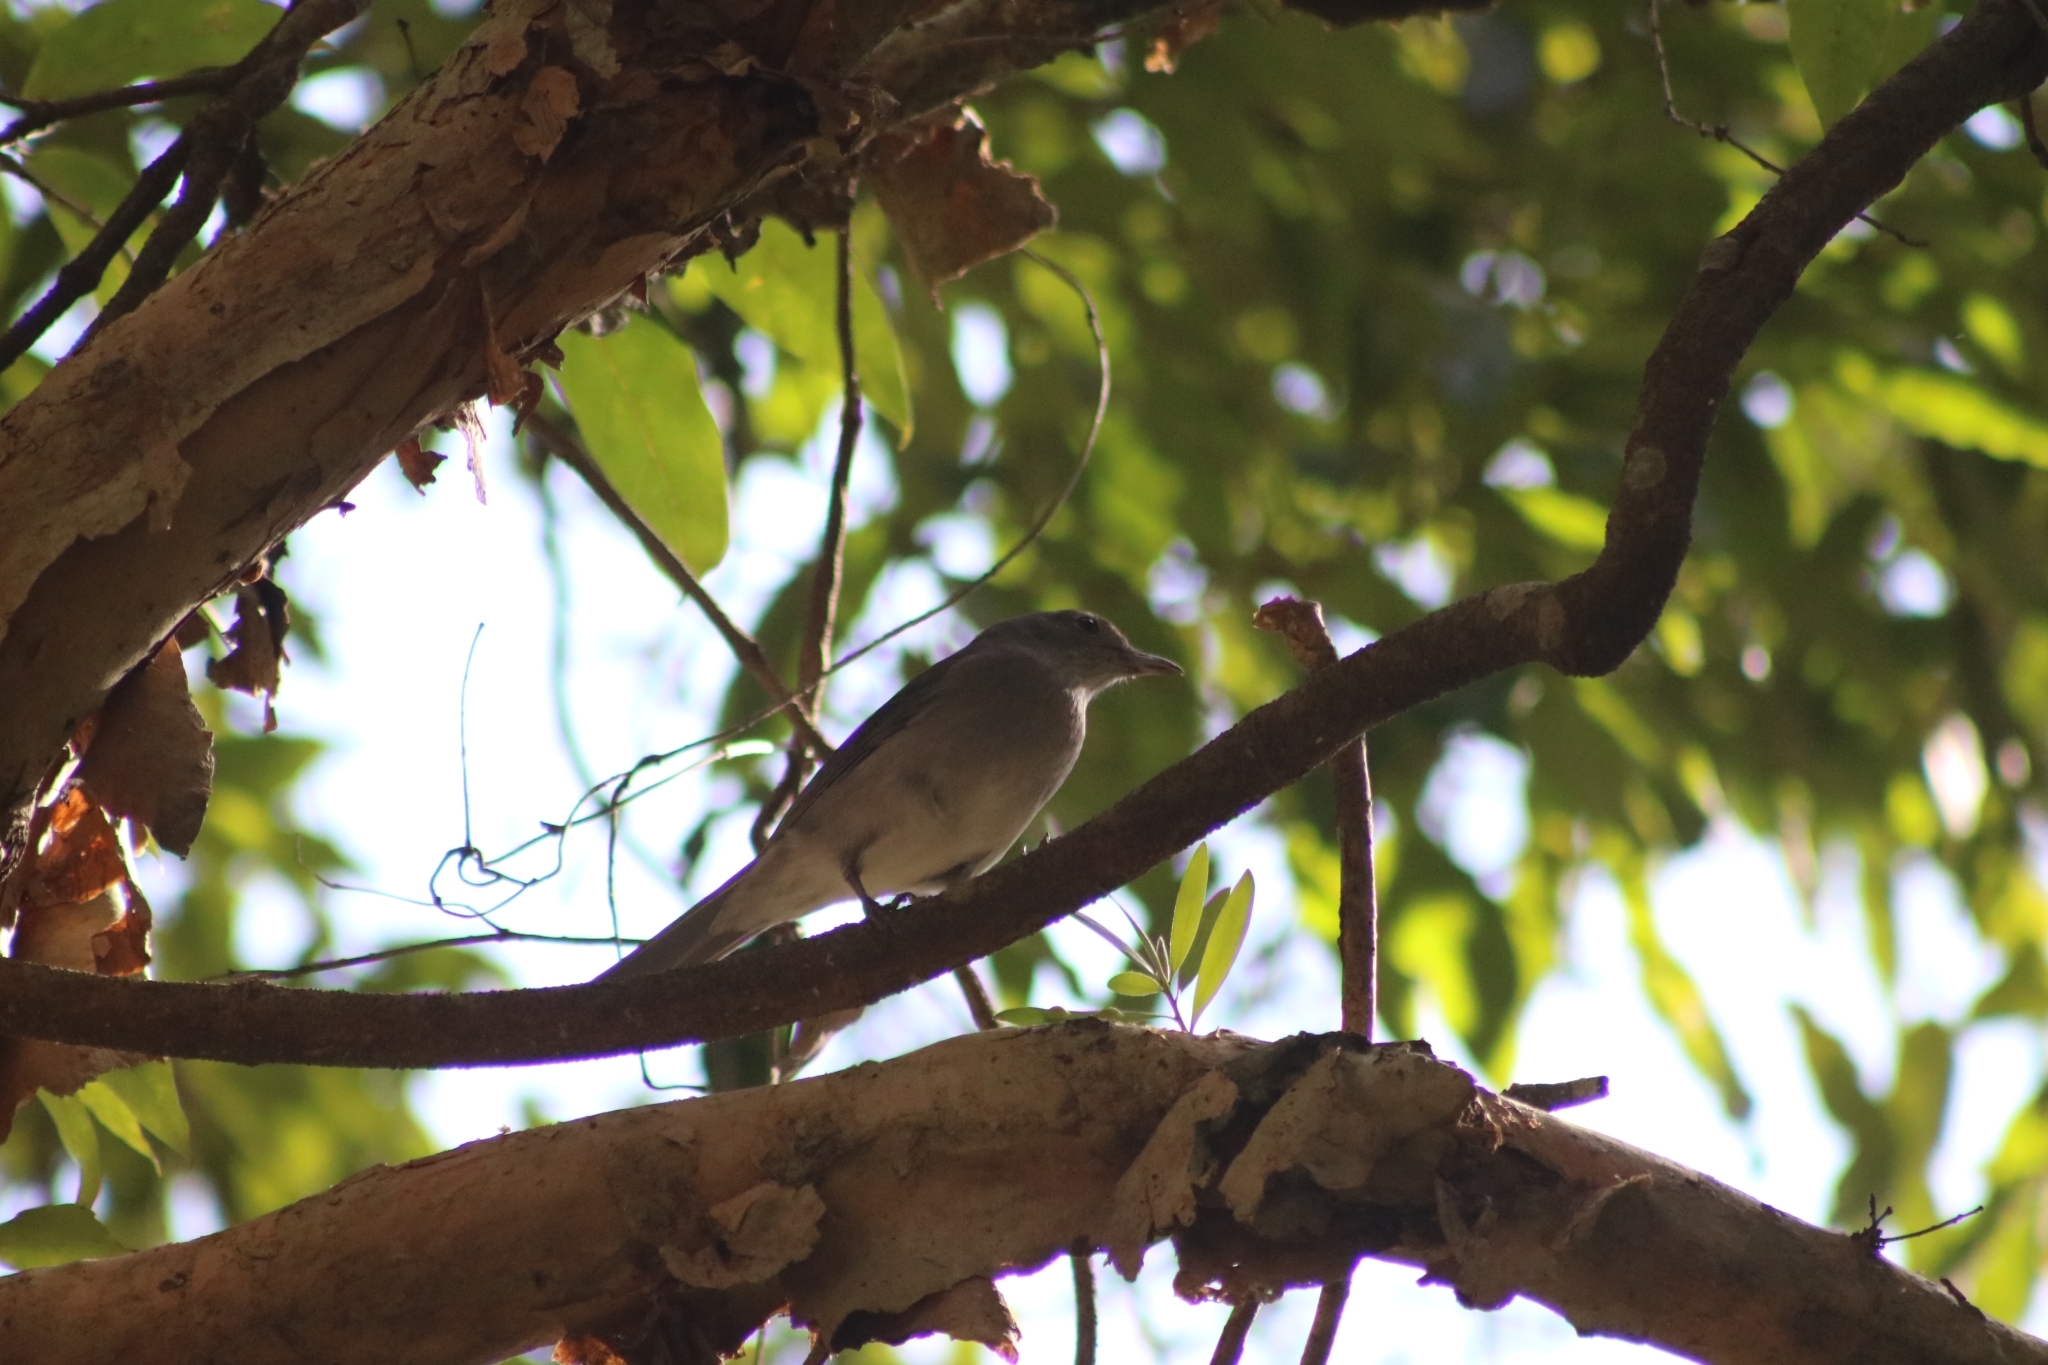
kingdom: Animalia
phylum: Chordata
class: Aves
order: Passeriformes
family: Pachycephalidae
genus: Colluricincla
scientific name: Colluricincla harmonica
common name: Grey shrikethrush
